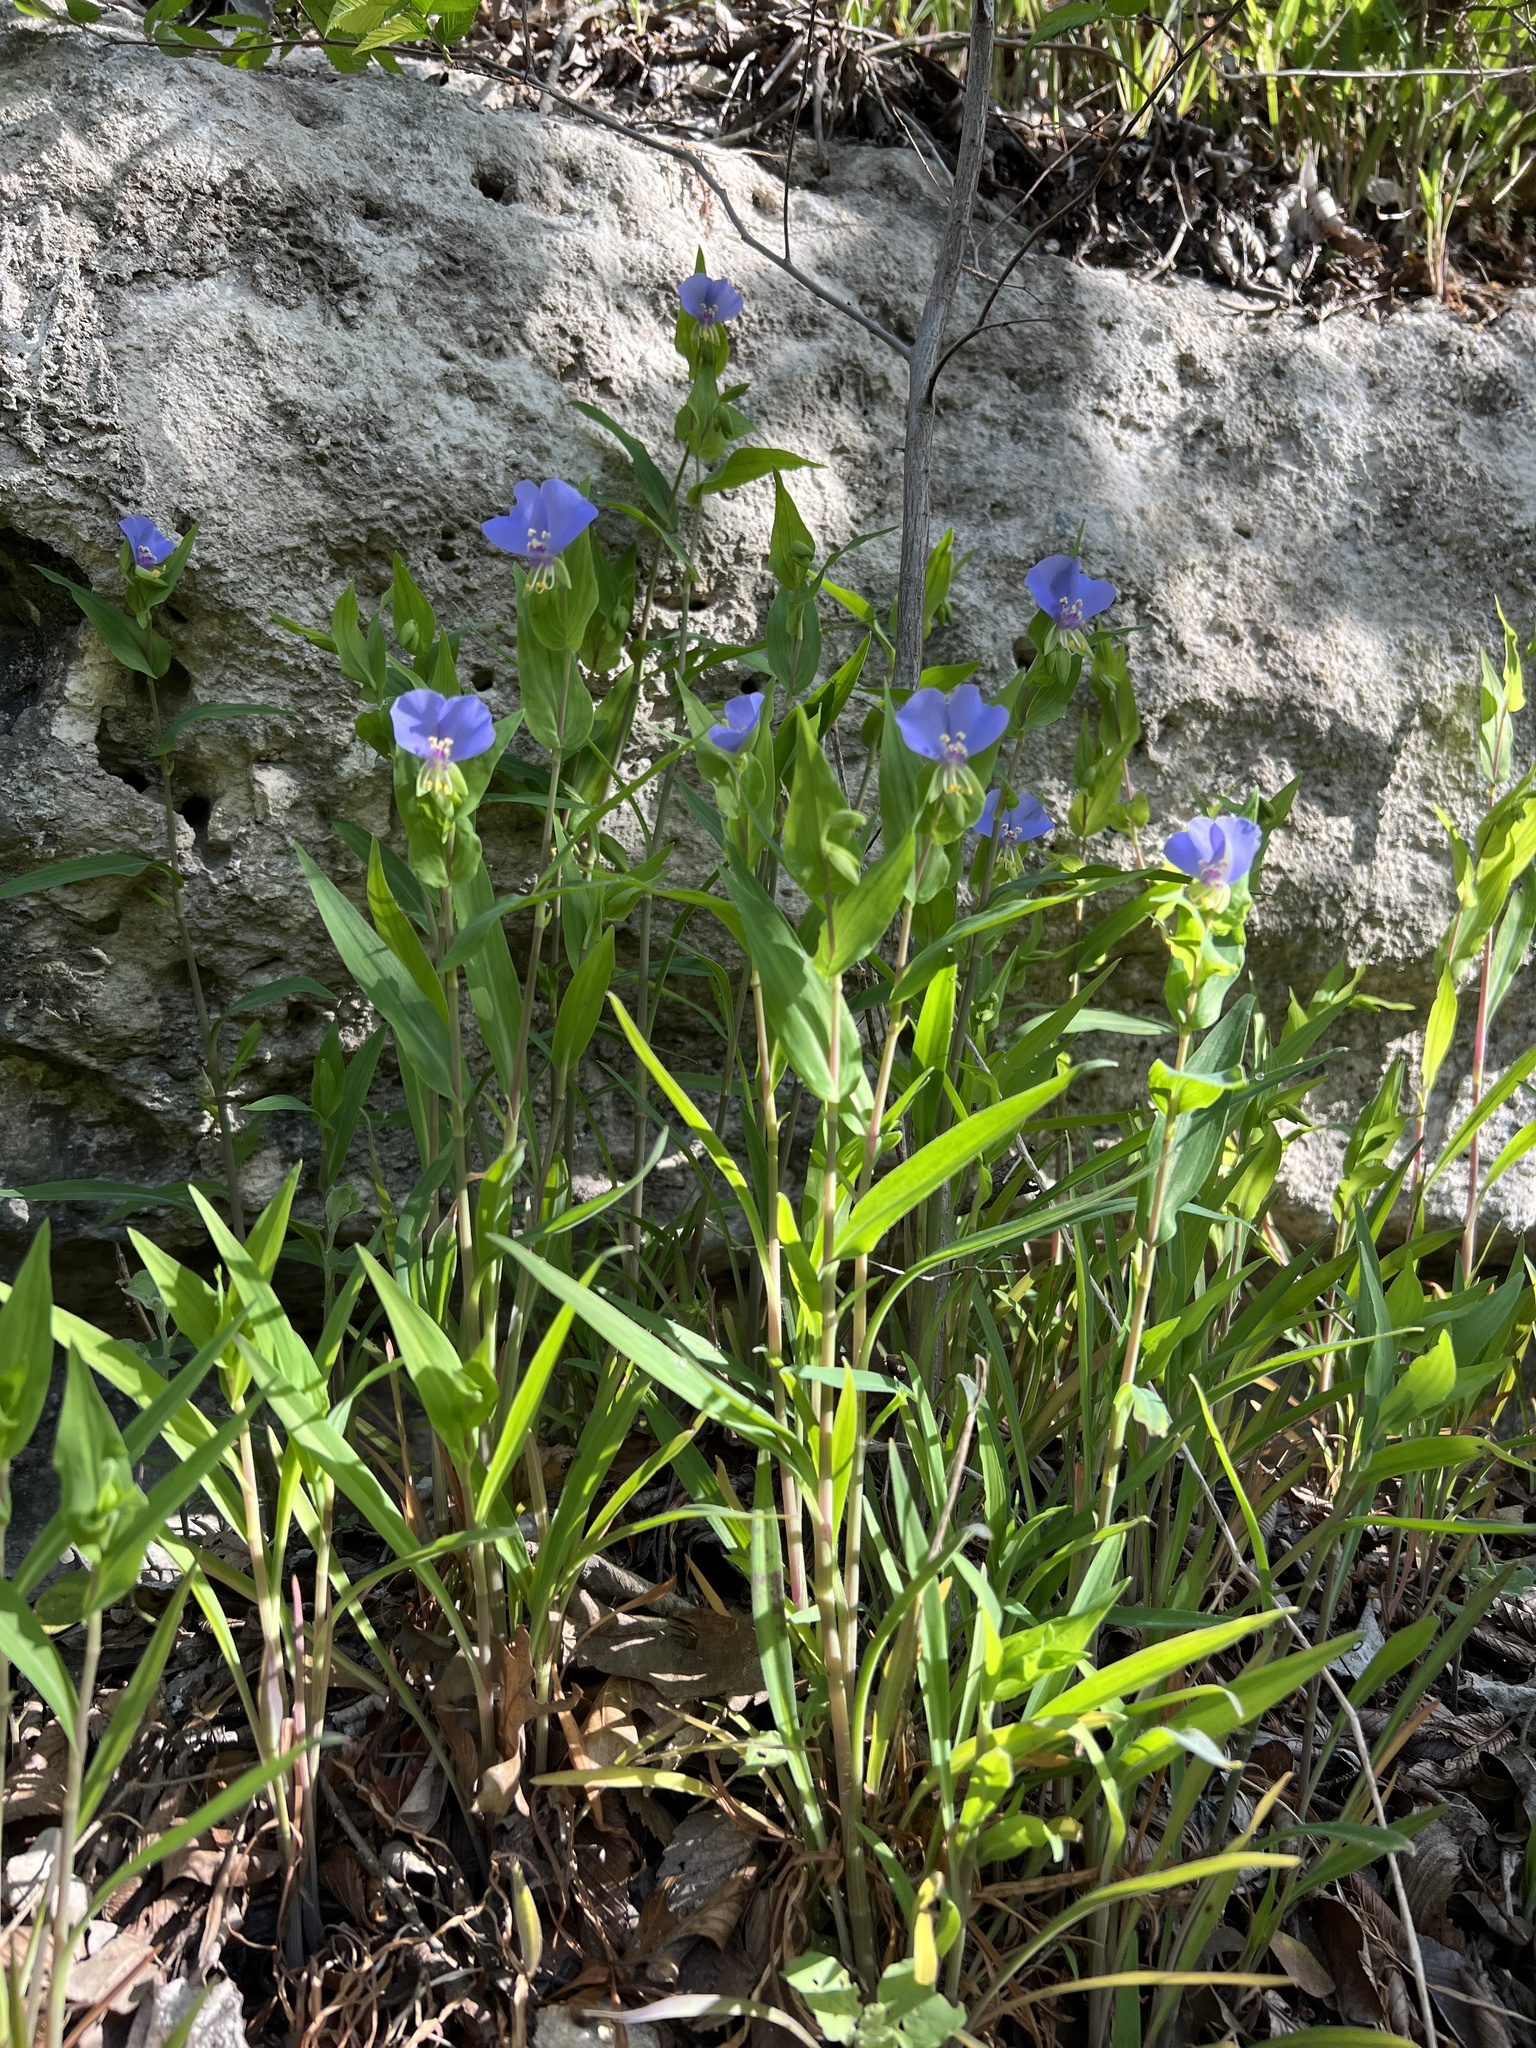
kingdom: Plantae
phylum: Tracheophyta
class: Liliopsida
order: Commelinales
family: Commelinaceae
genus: Tinantia
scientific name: Tinantia anomala
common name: False dayflower
